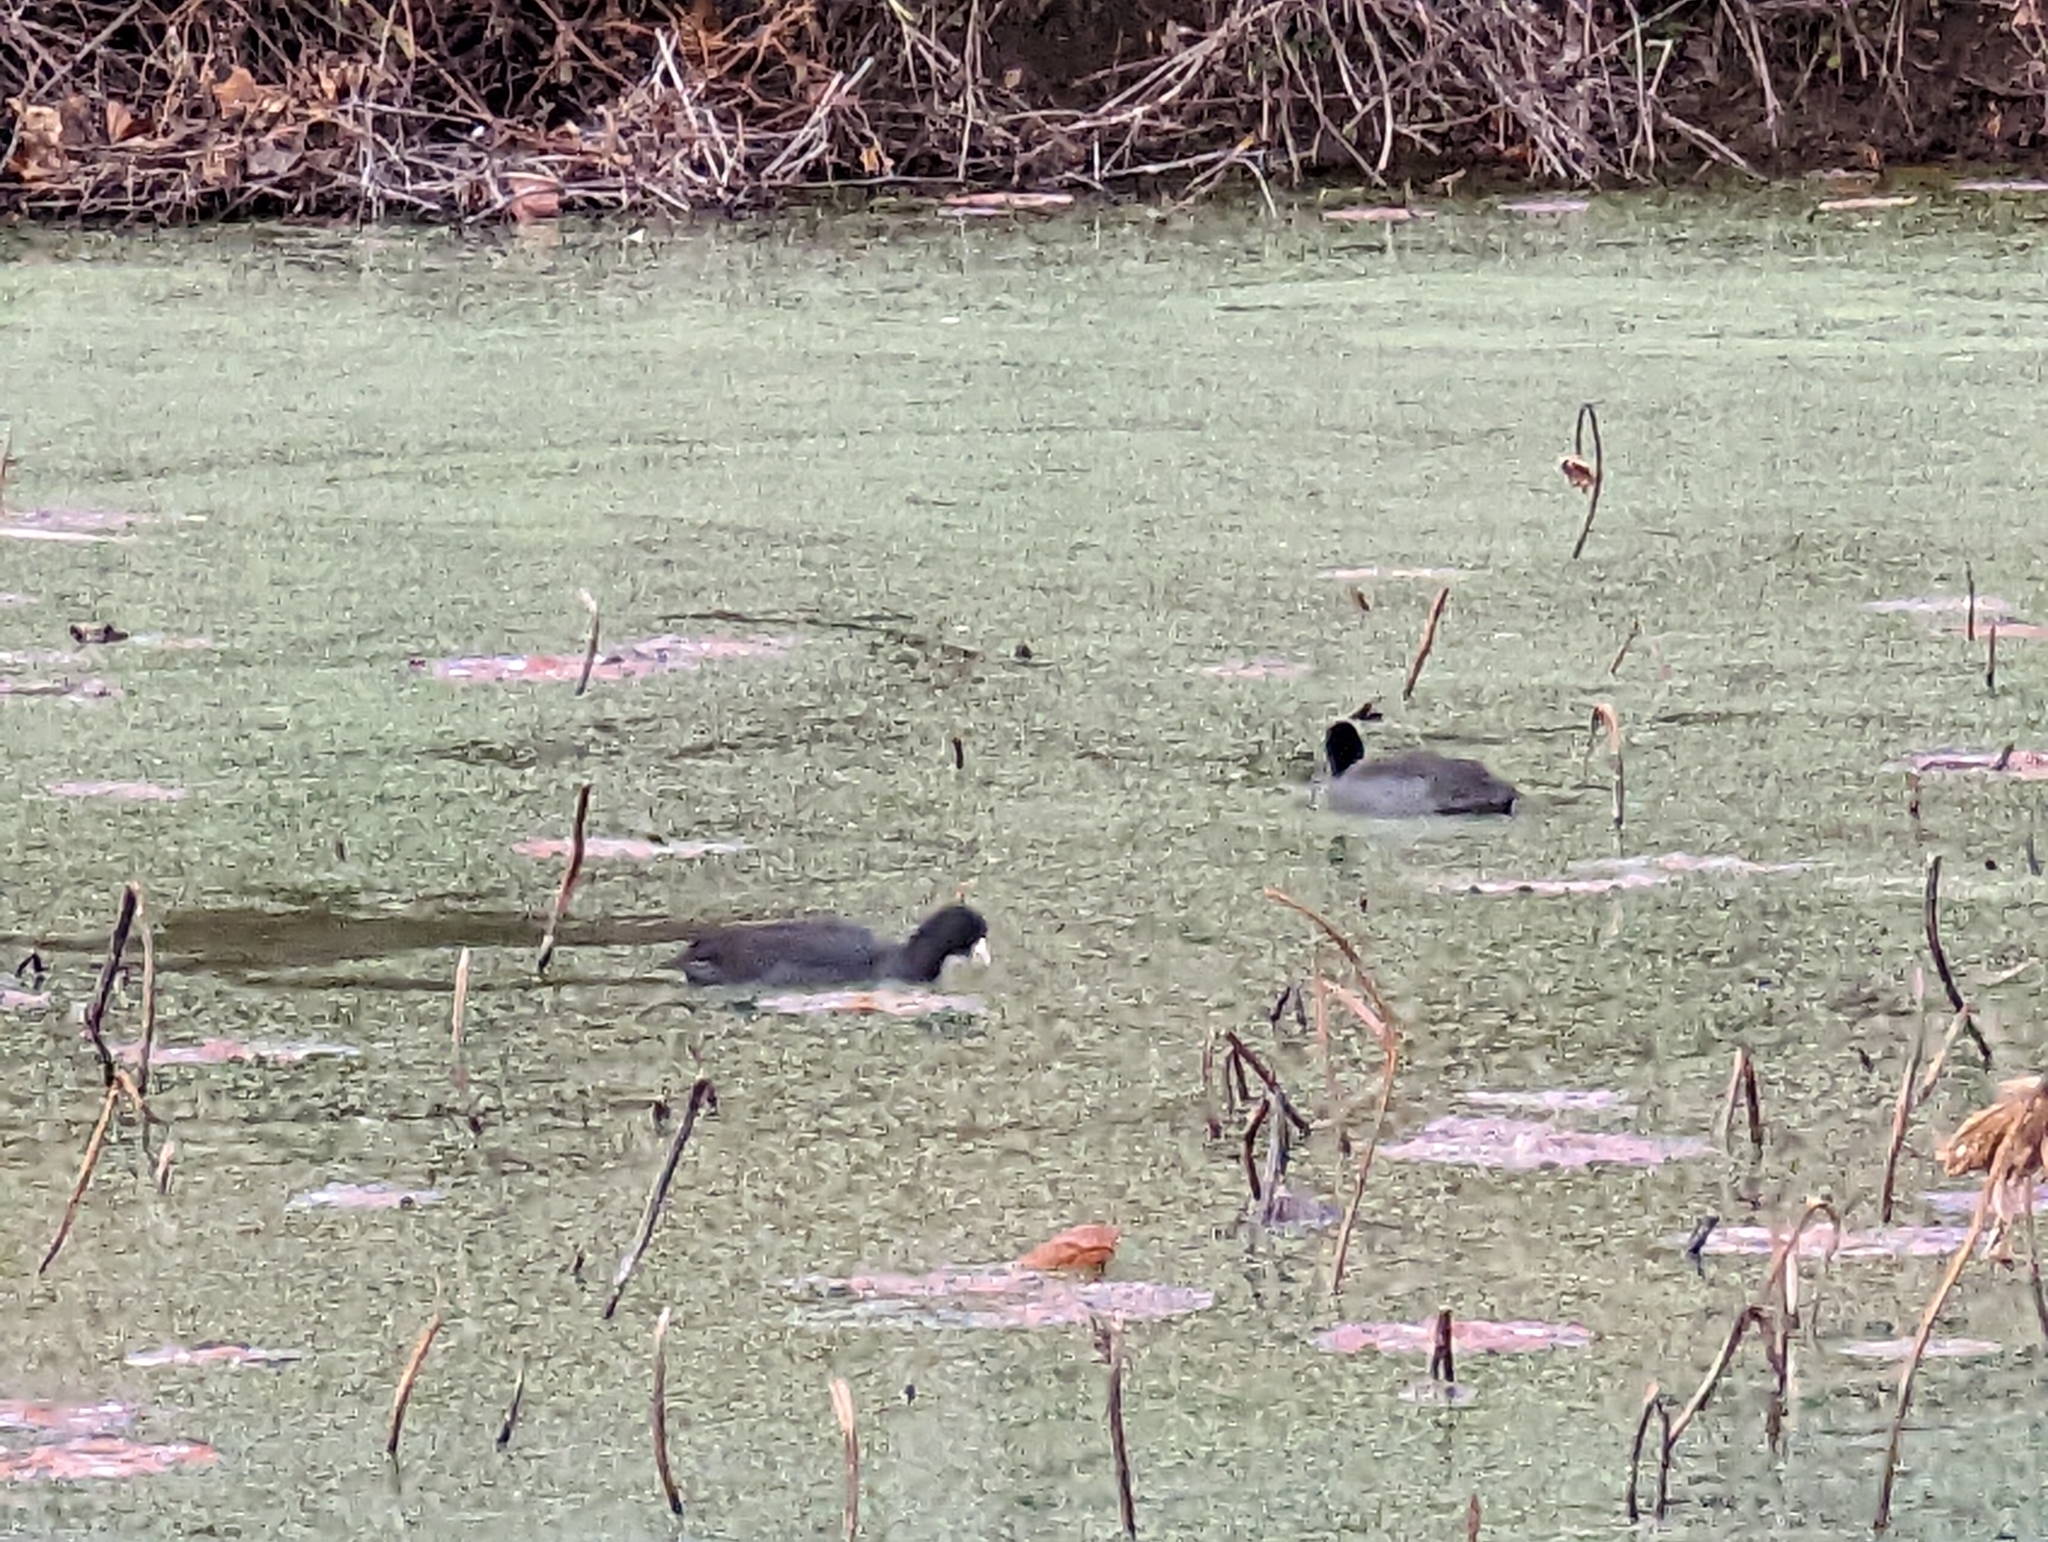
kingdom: Animalia
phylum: Chordata
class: Aves
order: Gruiformes
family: Rallidae
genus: Fulica
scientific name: Fulica americana
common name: American coot
